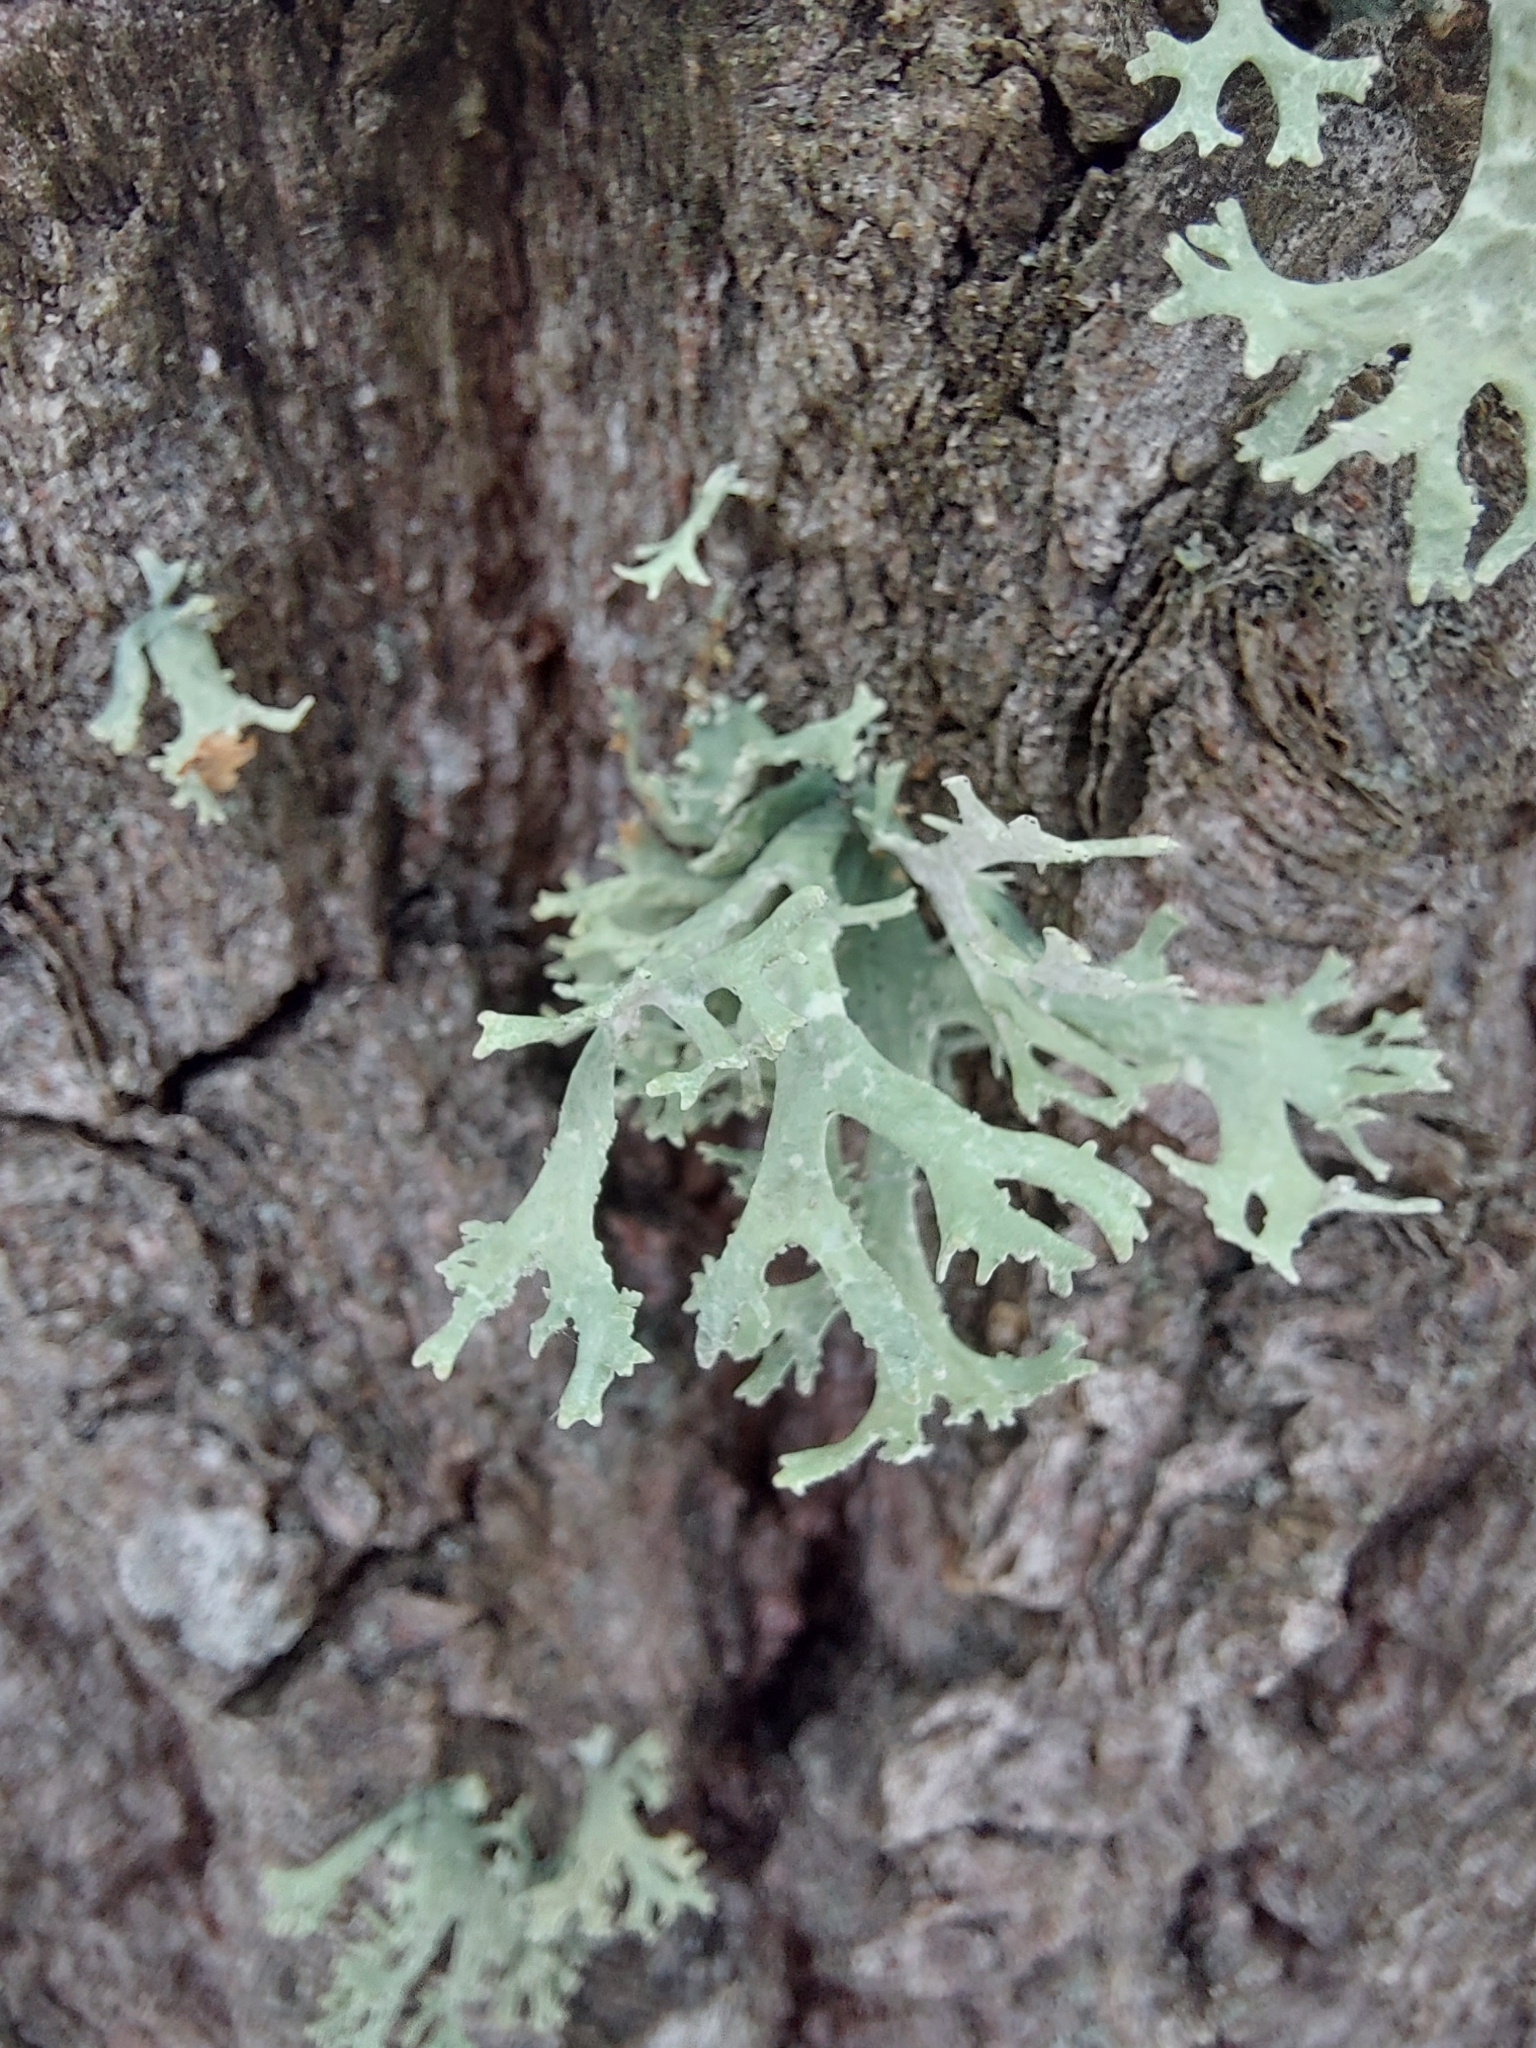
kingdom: Fungi
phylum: Ascomycota
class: Lecanoromycetes
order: Lecanorales
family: Parmeliaceae
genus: Evernia
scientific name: Evernia prunastri
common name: Oak moss
